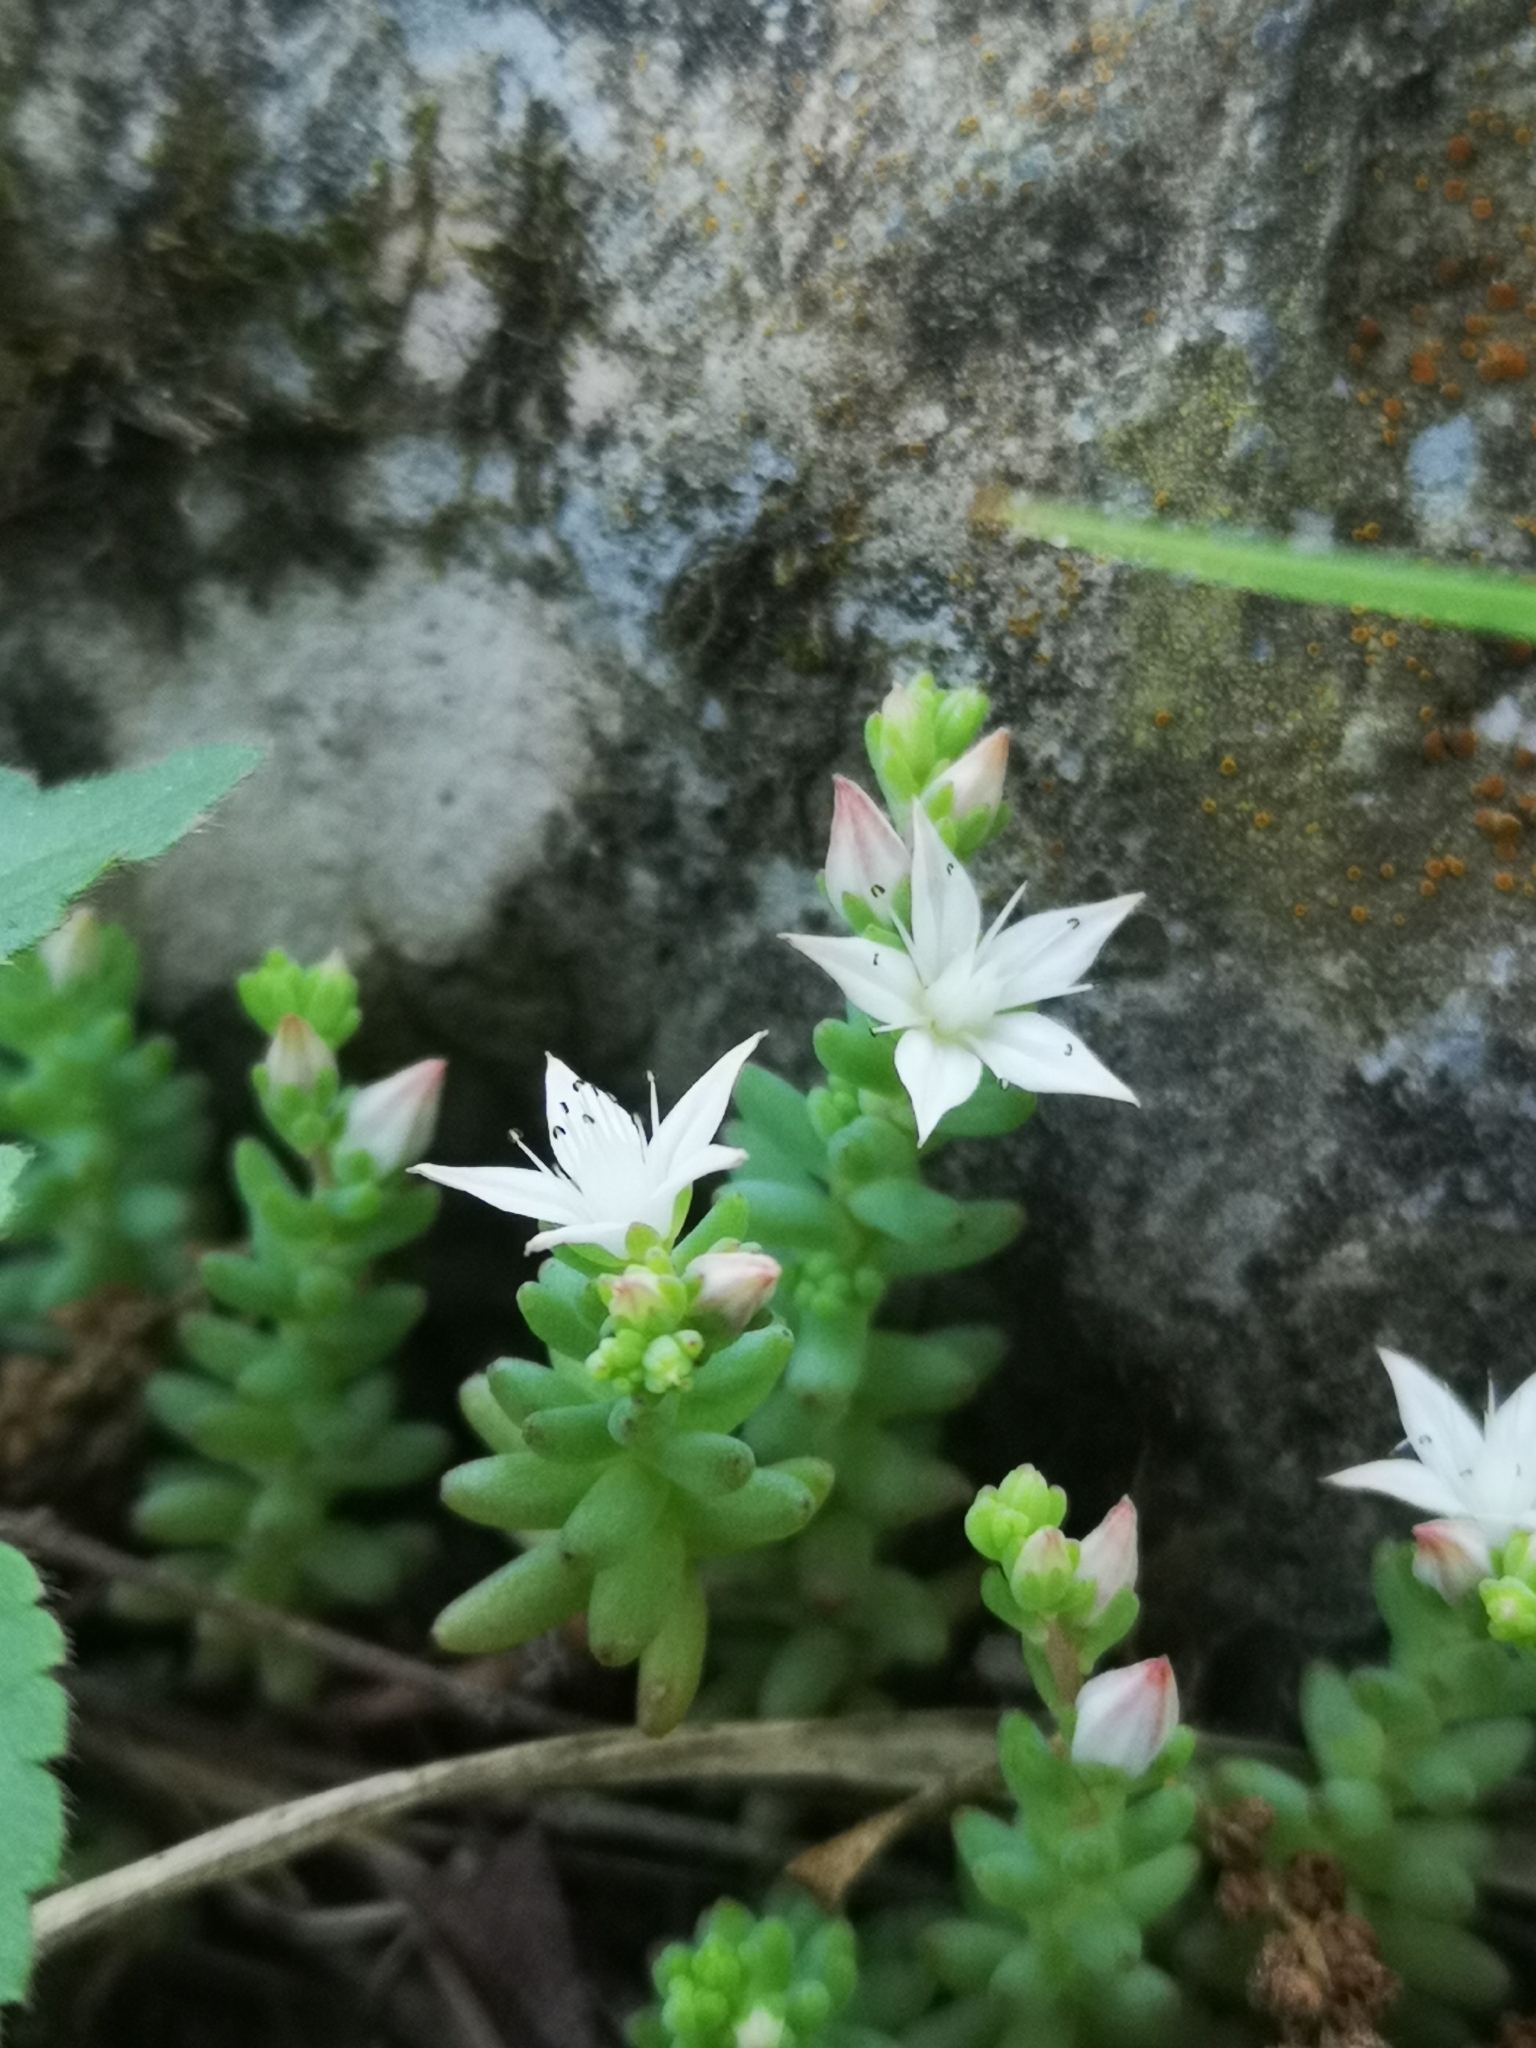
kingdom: Plantae
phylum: Tracheophyta
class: Magnoliopsida
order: Saxifragales
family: Crassulaceae
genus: Sedum
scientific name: Sedum potosinum
